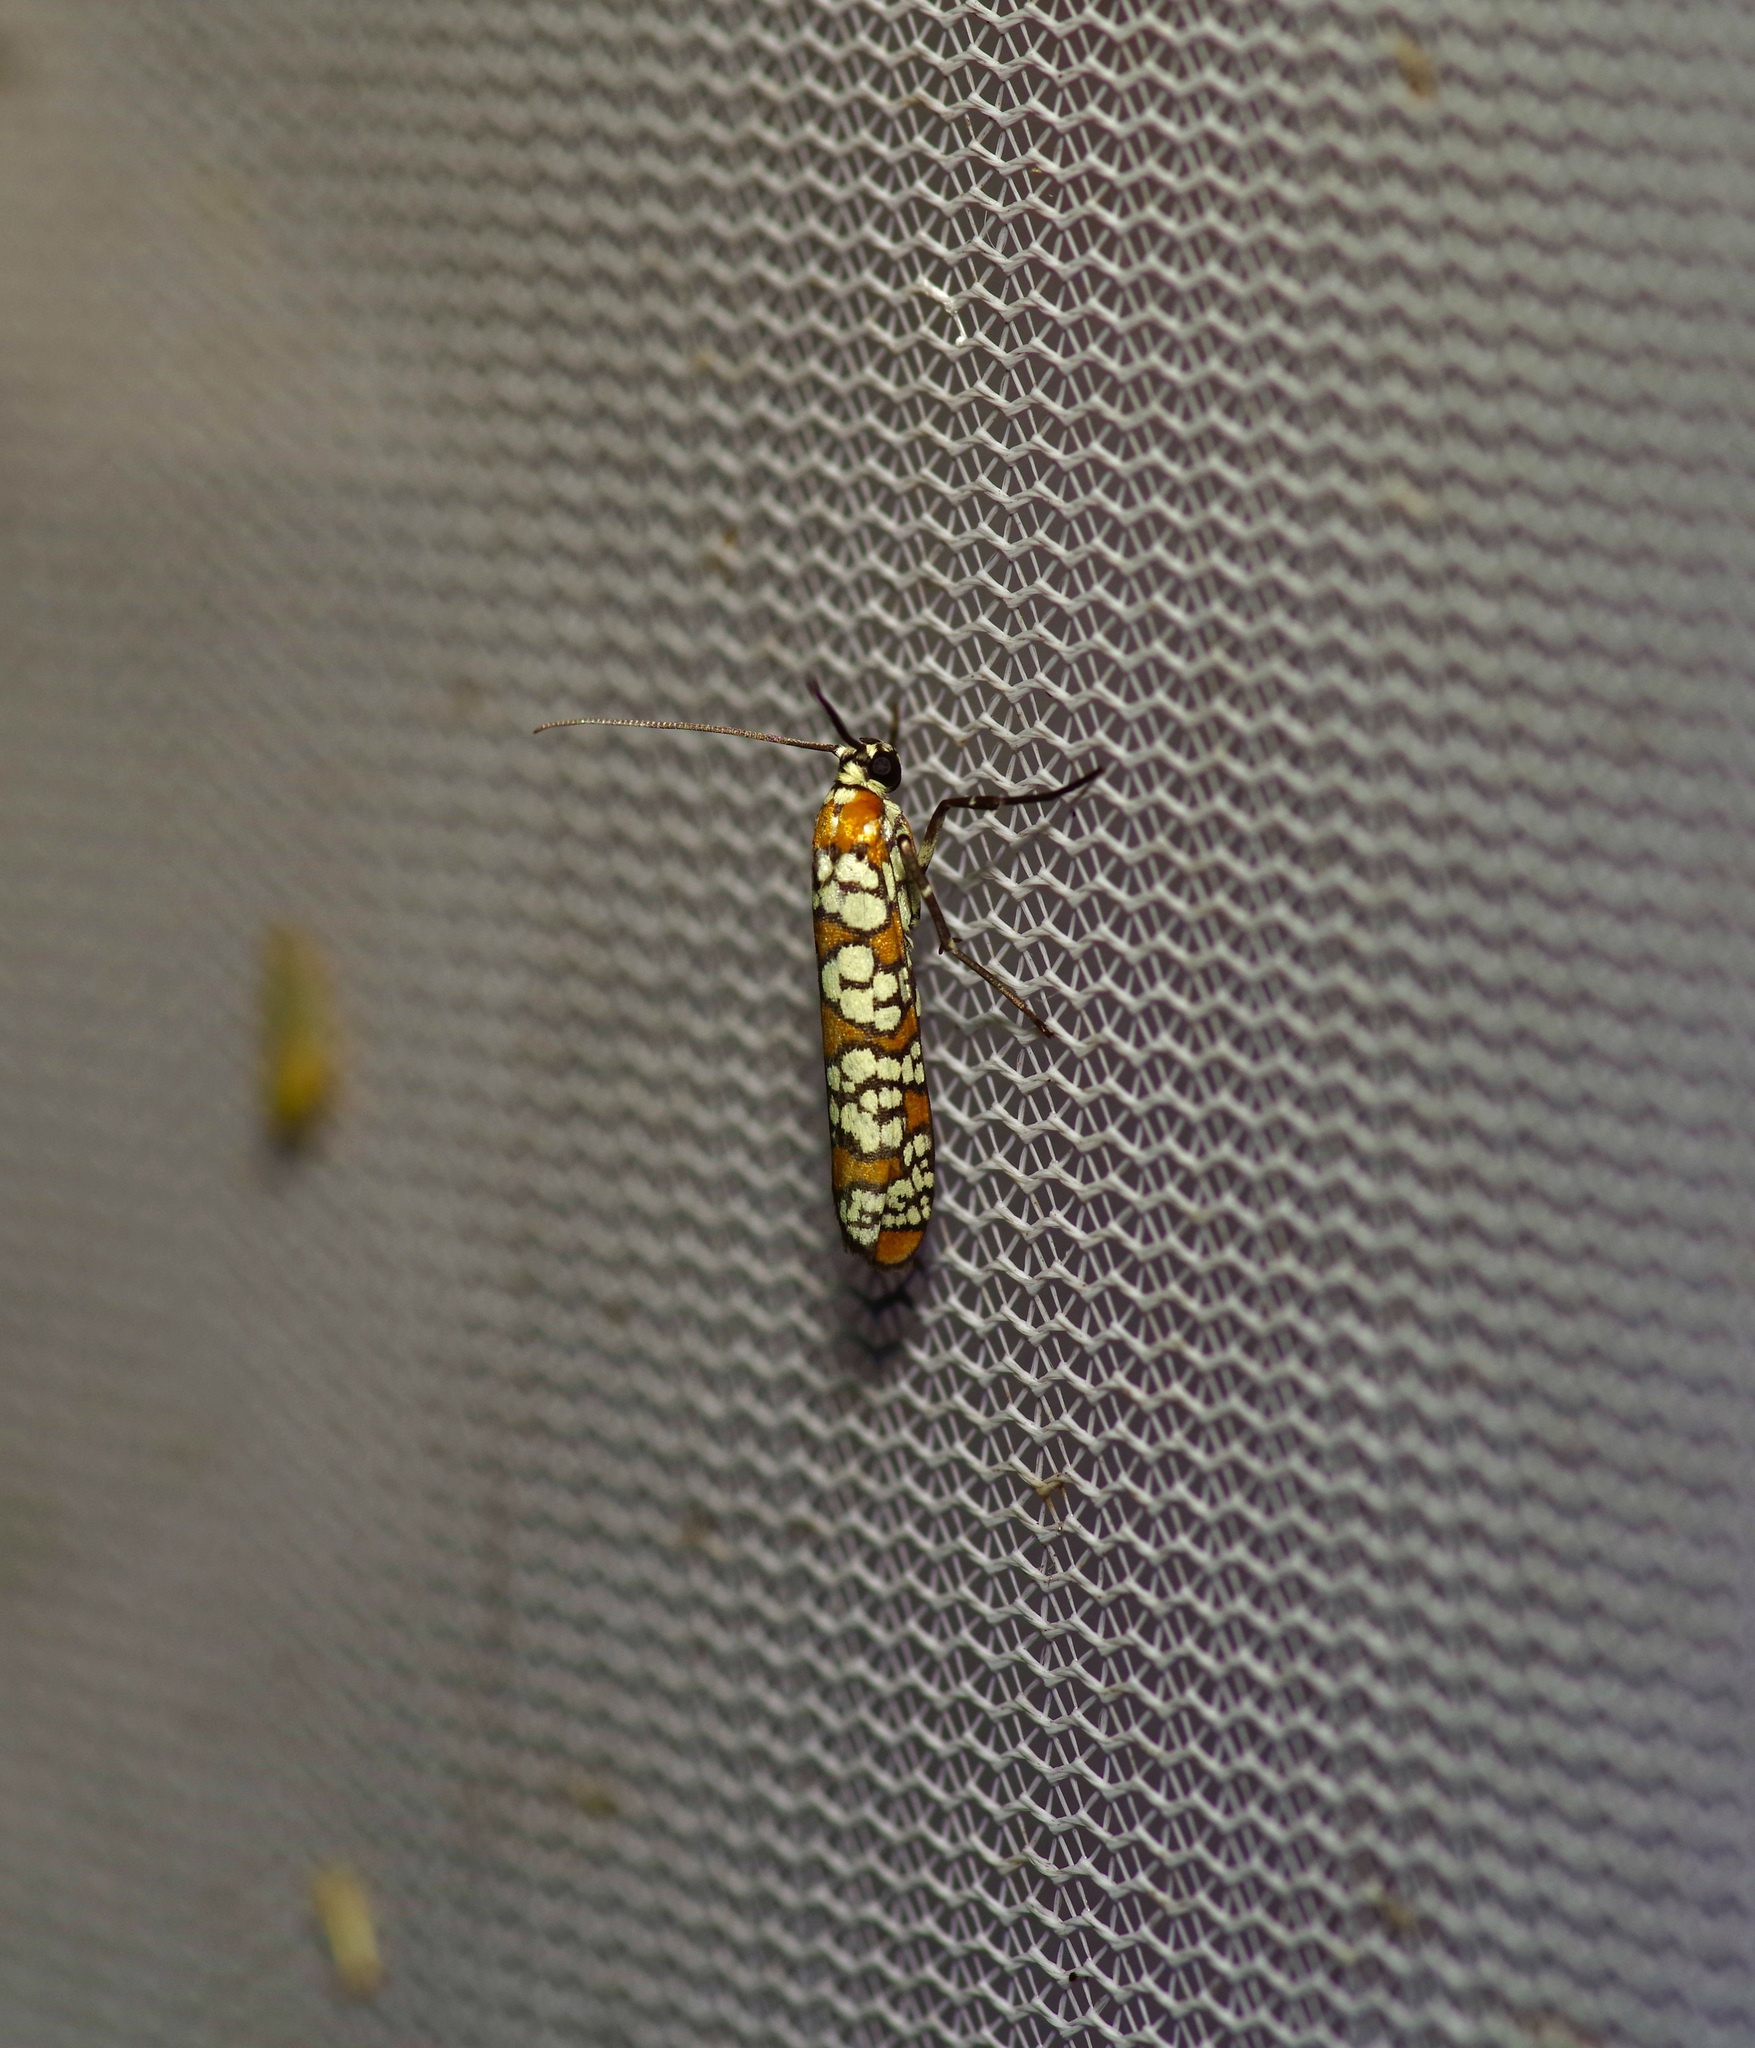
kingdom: Animalia
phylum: Arthropoda
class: Insecta
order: Lepidoptera
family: Attevidae
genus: Atteva
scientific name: Atteva punctella
